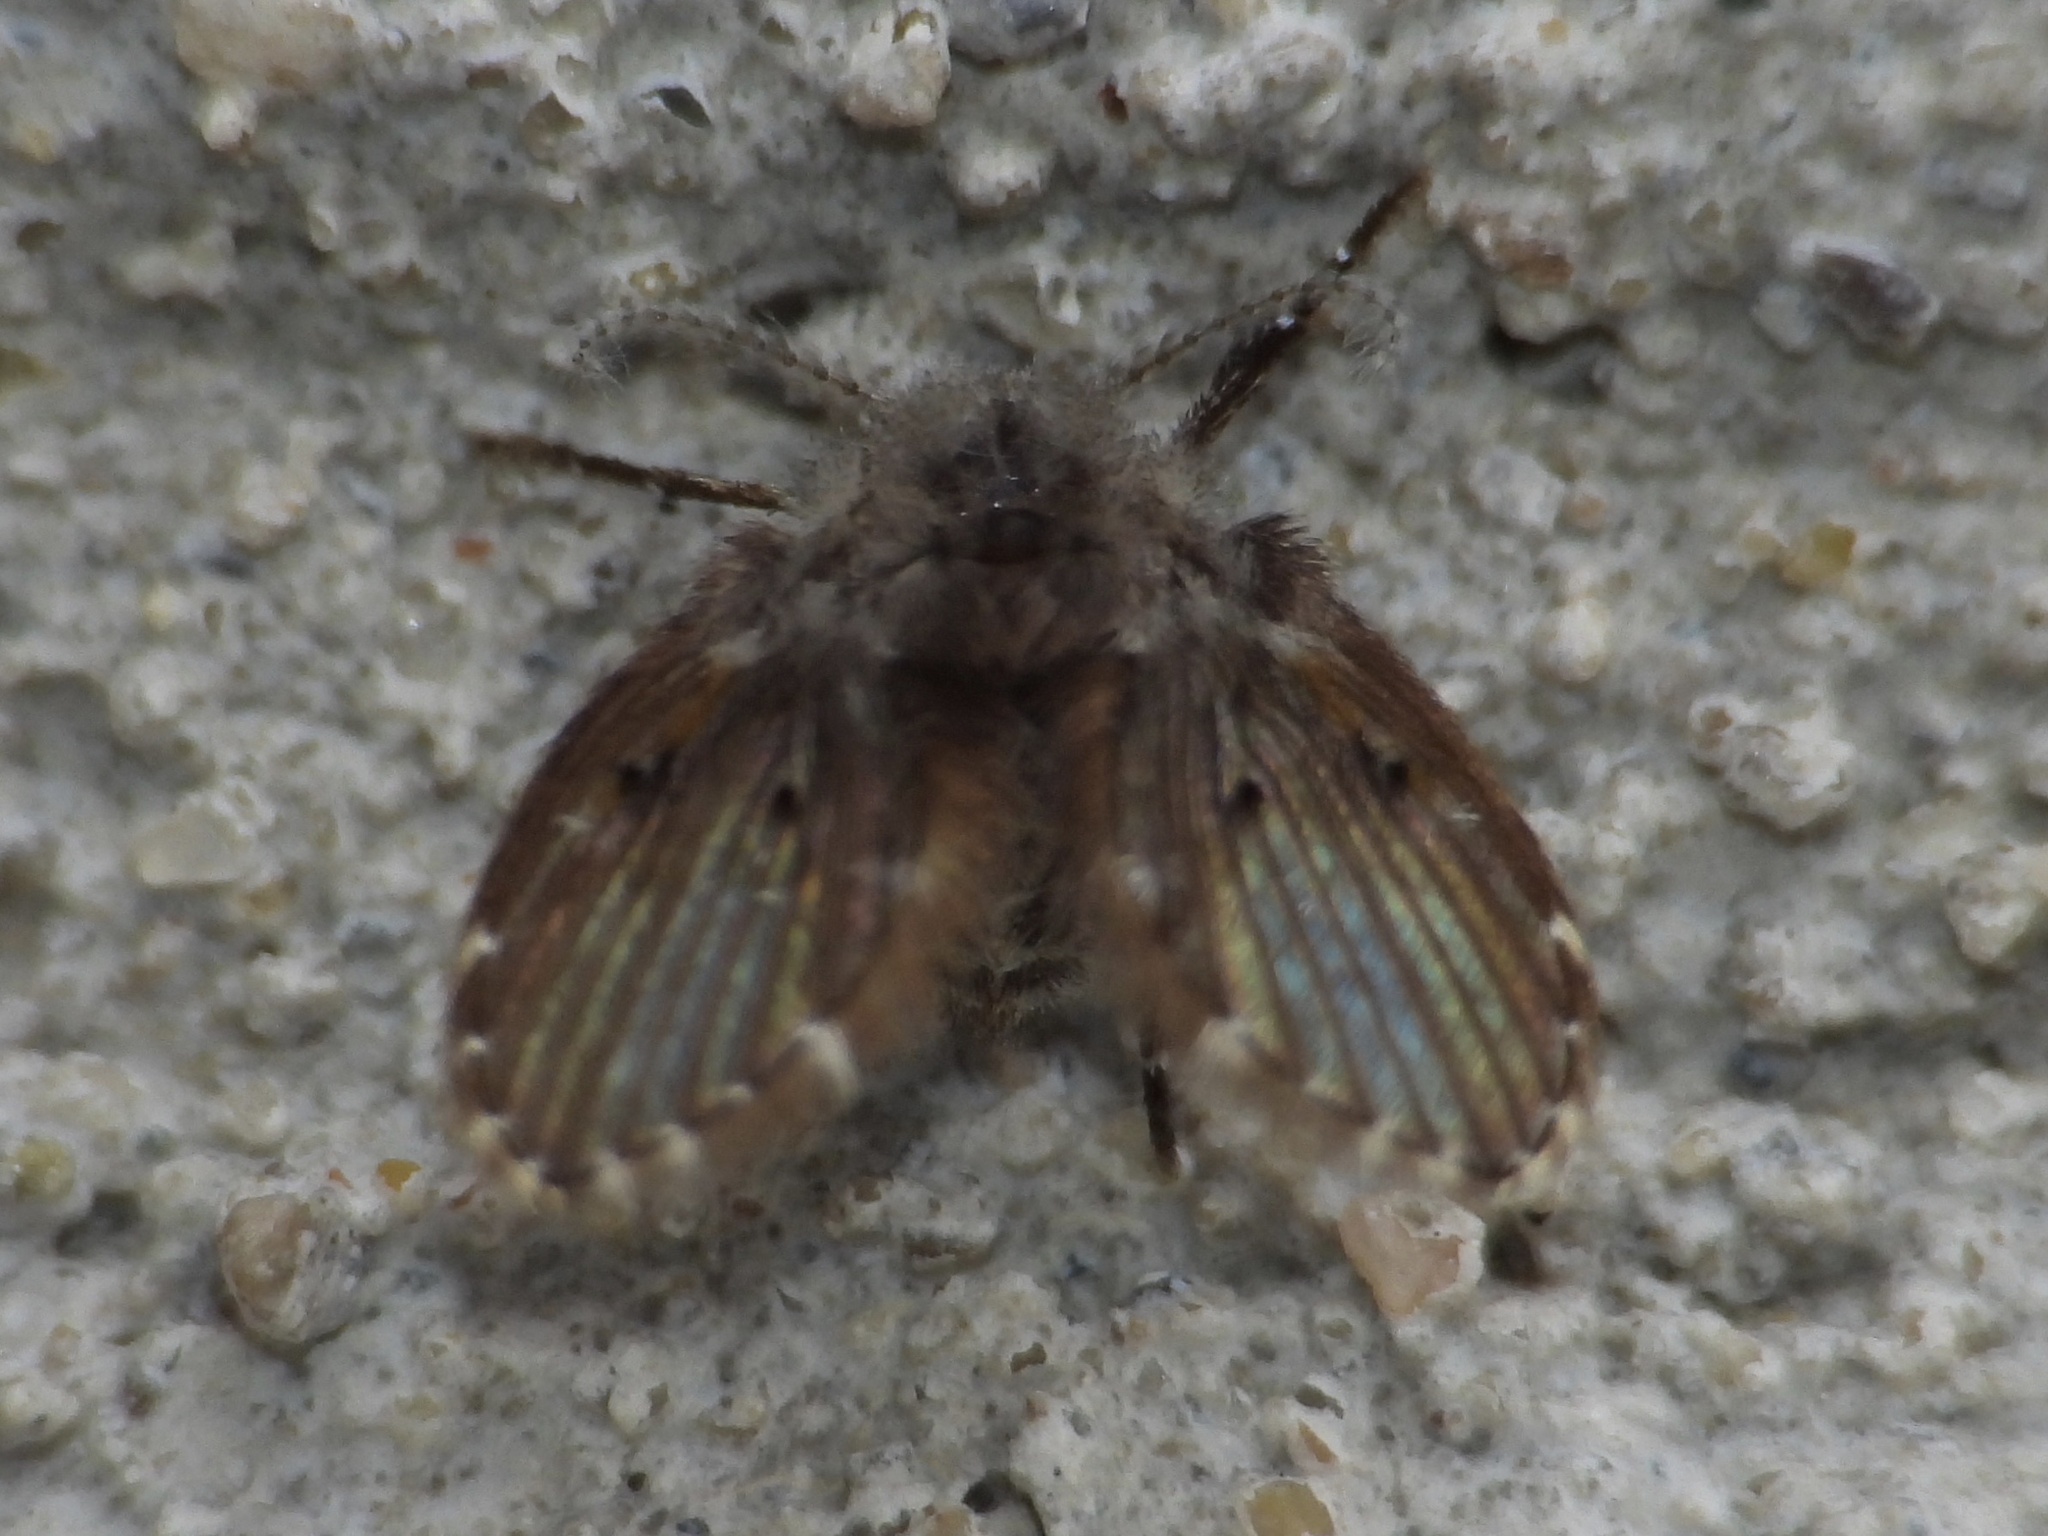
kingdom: Animalia
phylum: Arthropoda
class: Insecta
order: Diptera
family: Psychodidae
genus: Clogmia
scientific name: Clogmia albipunctatus
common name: White-spotted moth fly
